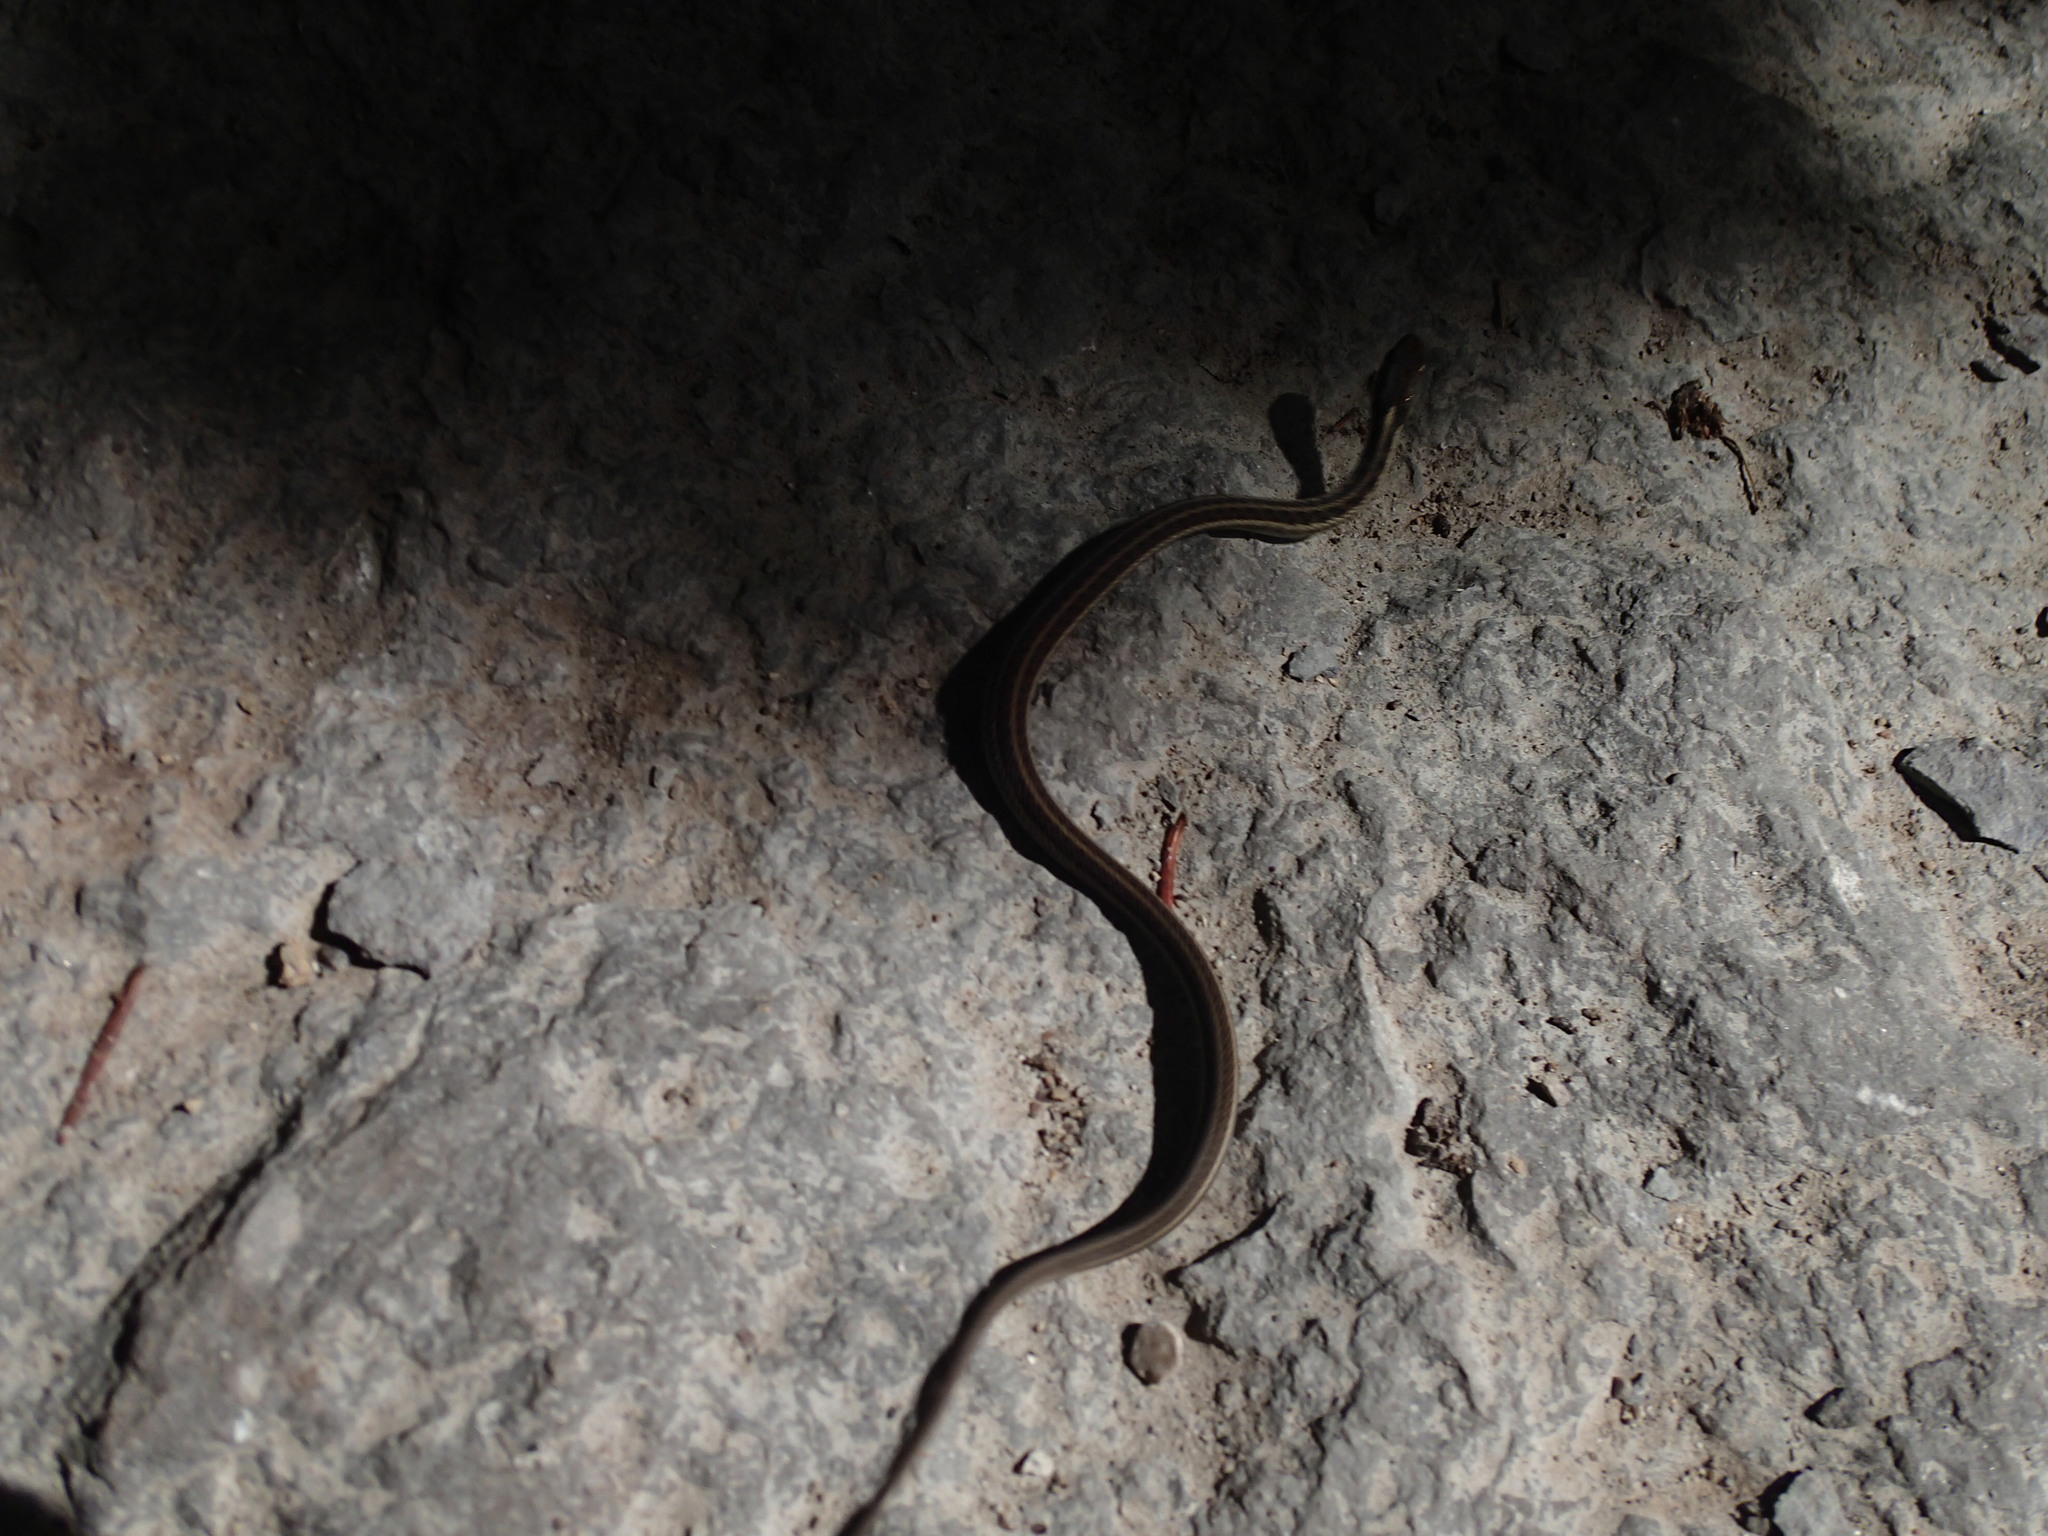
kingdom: Animalia
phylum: Chordata
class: Squamata
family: Colubridae
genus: Thamnophis
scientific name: Thamnophis sirtalis
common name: Common garter snake
